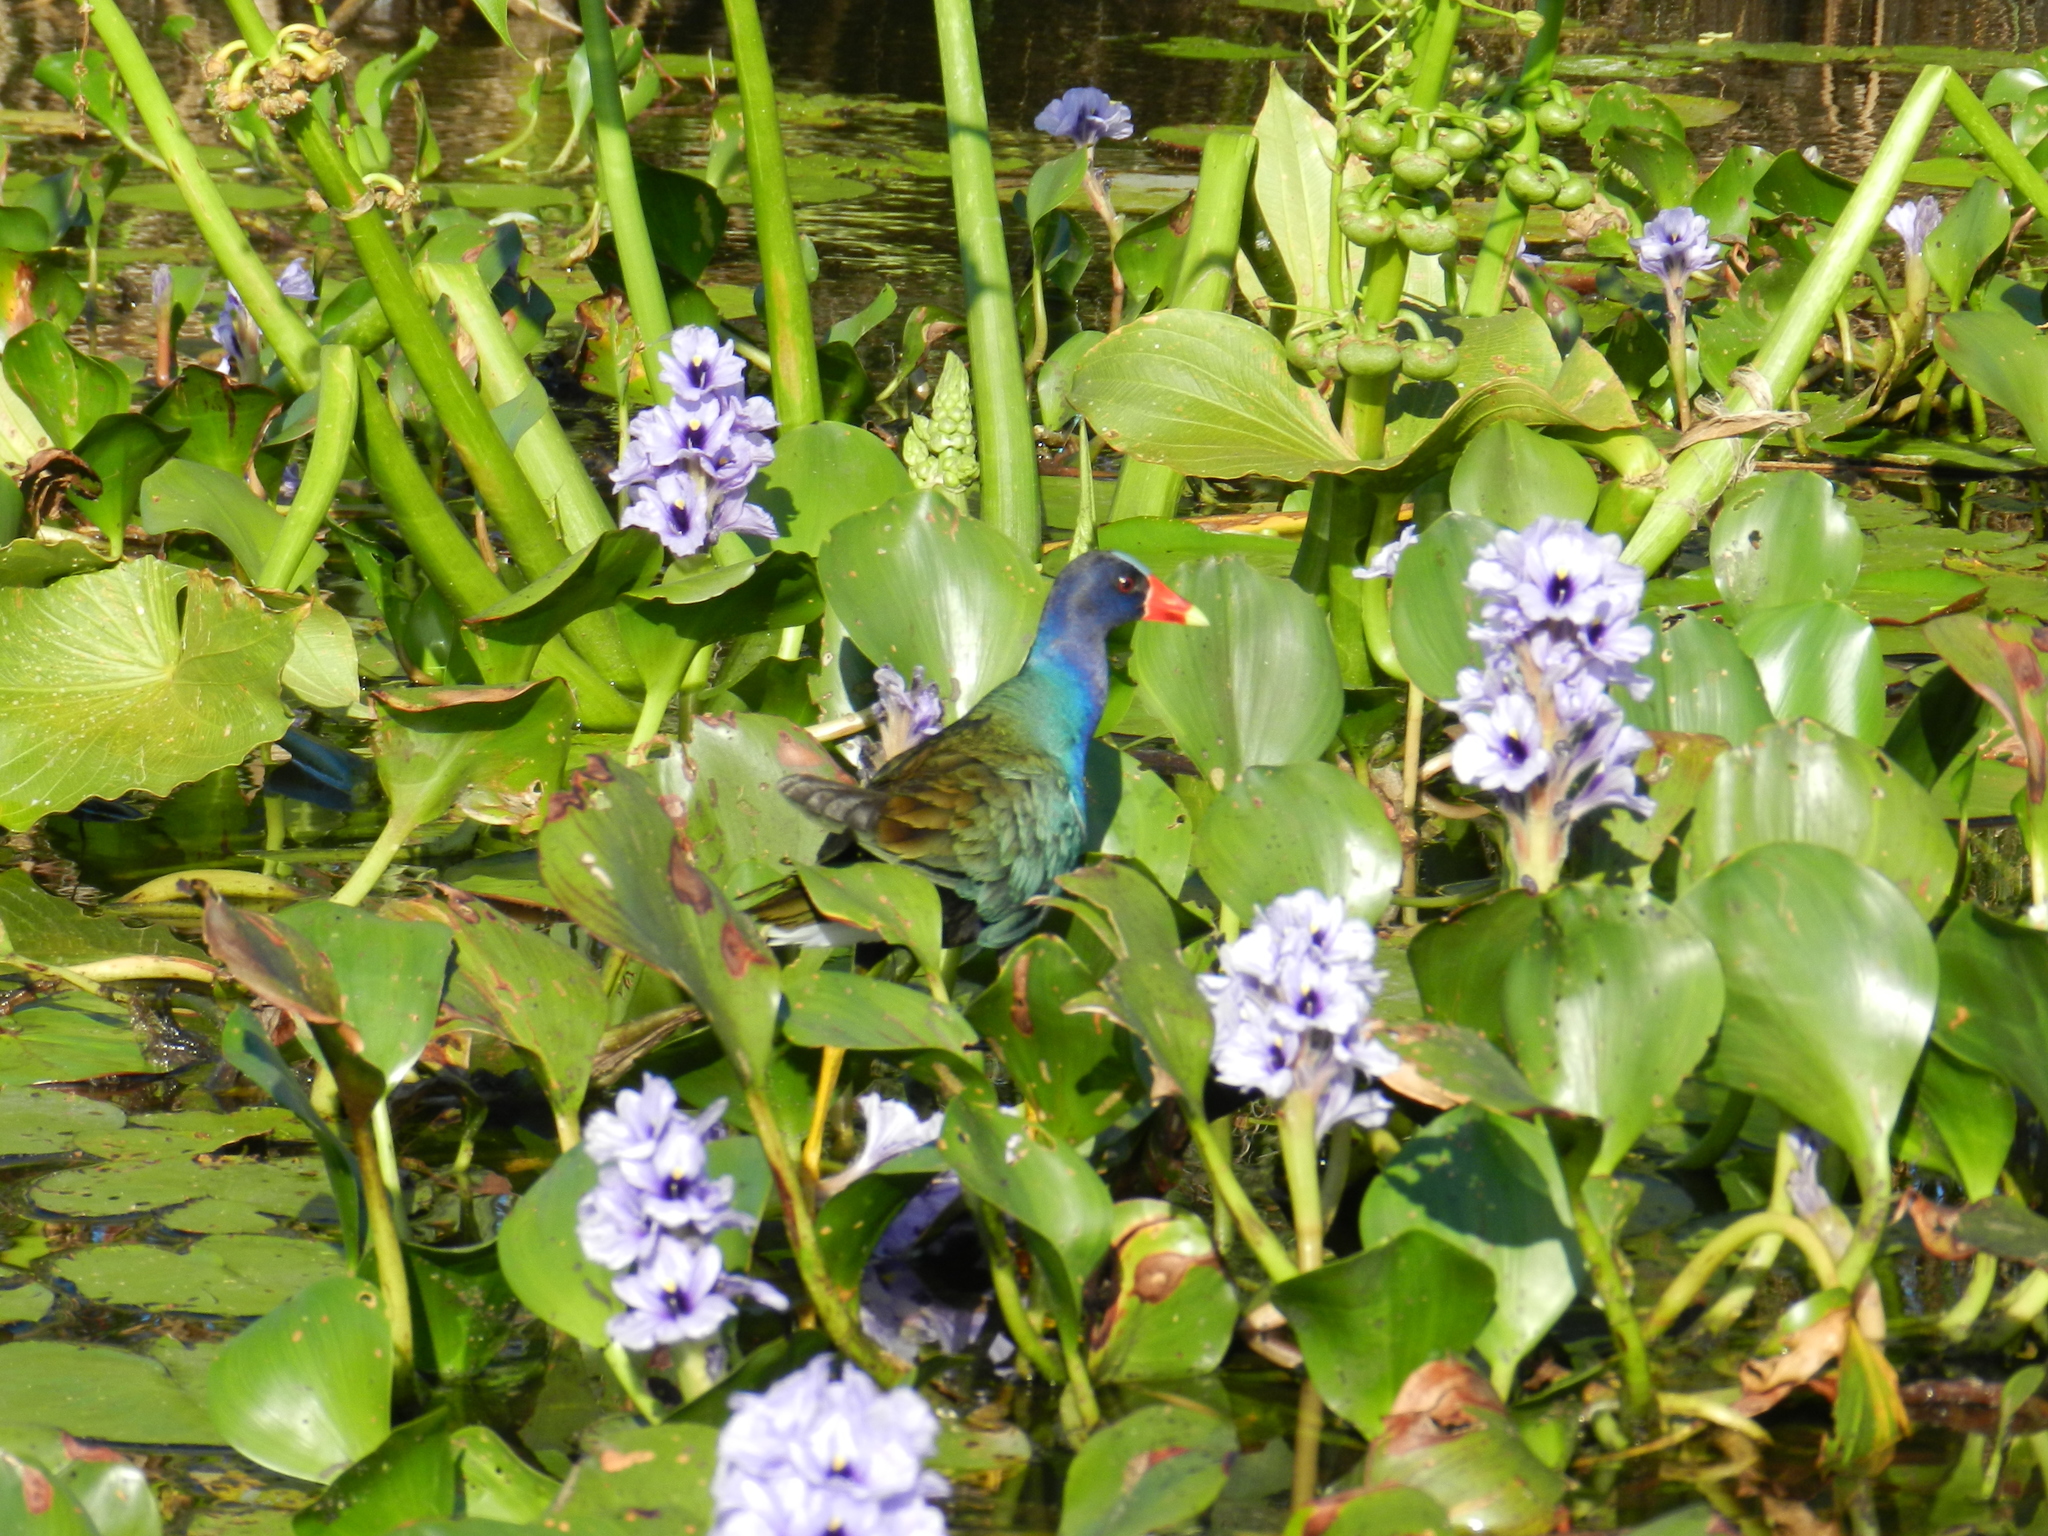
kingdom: Plantae
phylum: Tracheophyta
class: Liliopsida
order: Commelinales
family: Pontederiaceae
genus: Pontederia
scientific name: Pontederia azurea
